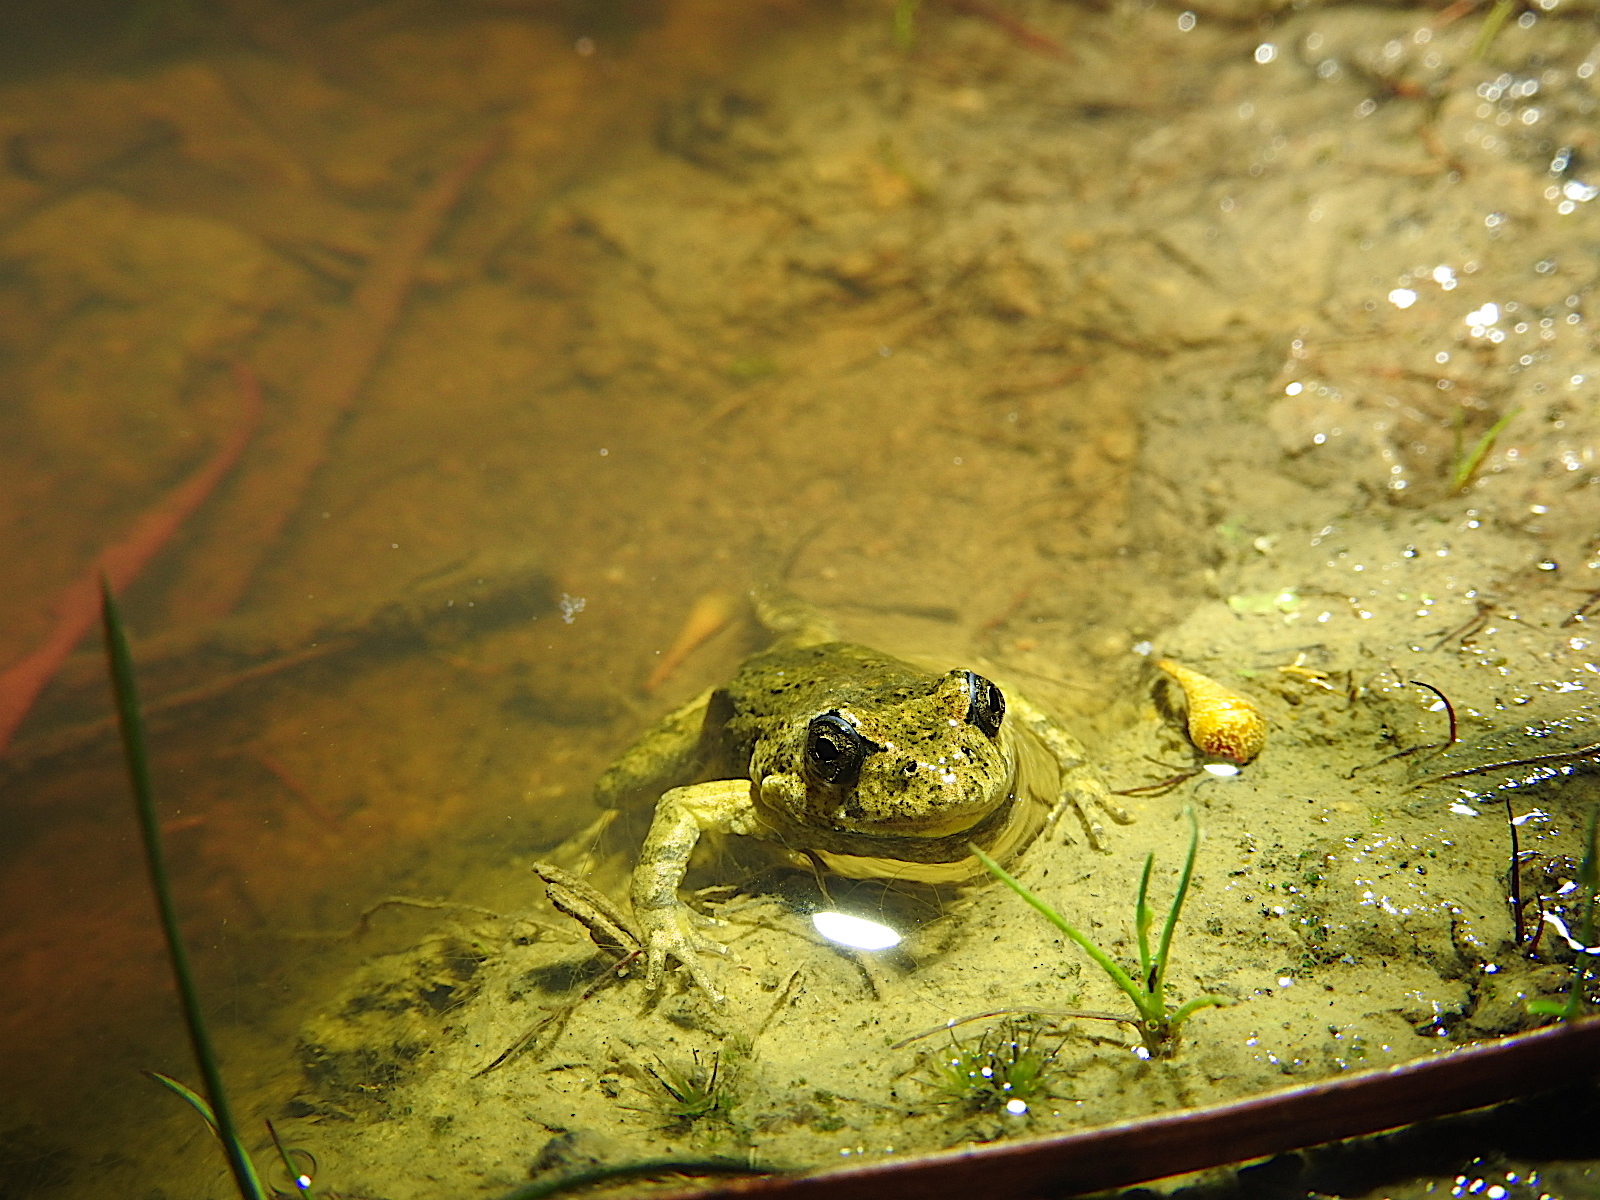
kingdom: Animalia
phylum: Chordata
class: Amphibia
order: Anura
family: Myobatrachidae
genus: Crinia
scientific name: Crinia signifera
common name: Brown froglet
